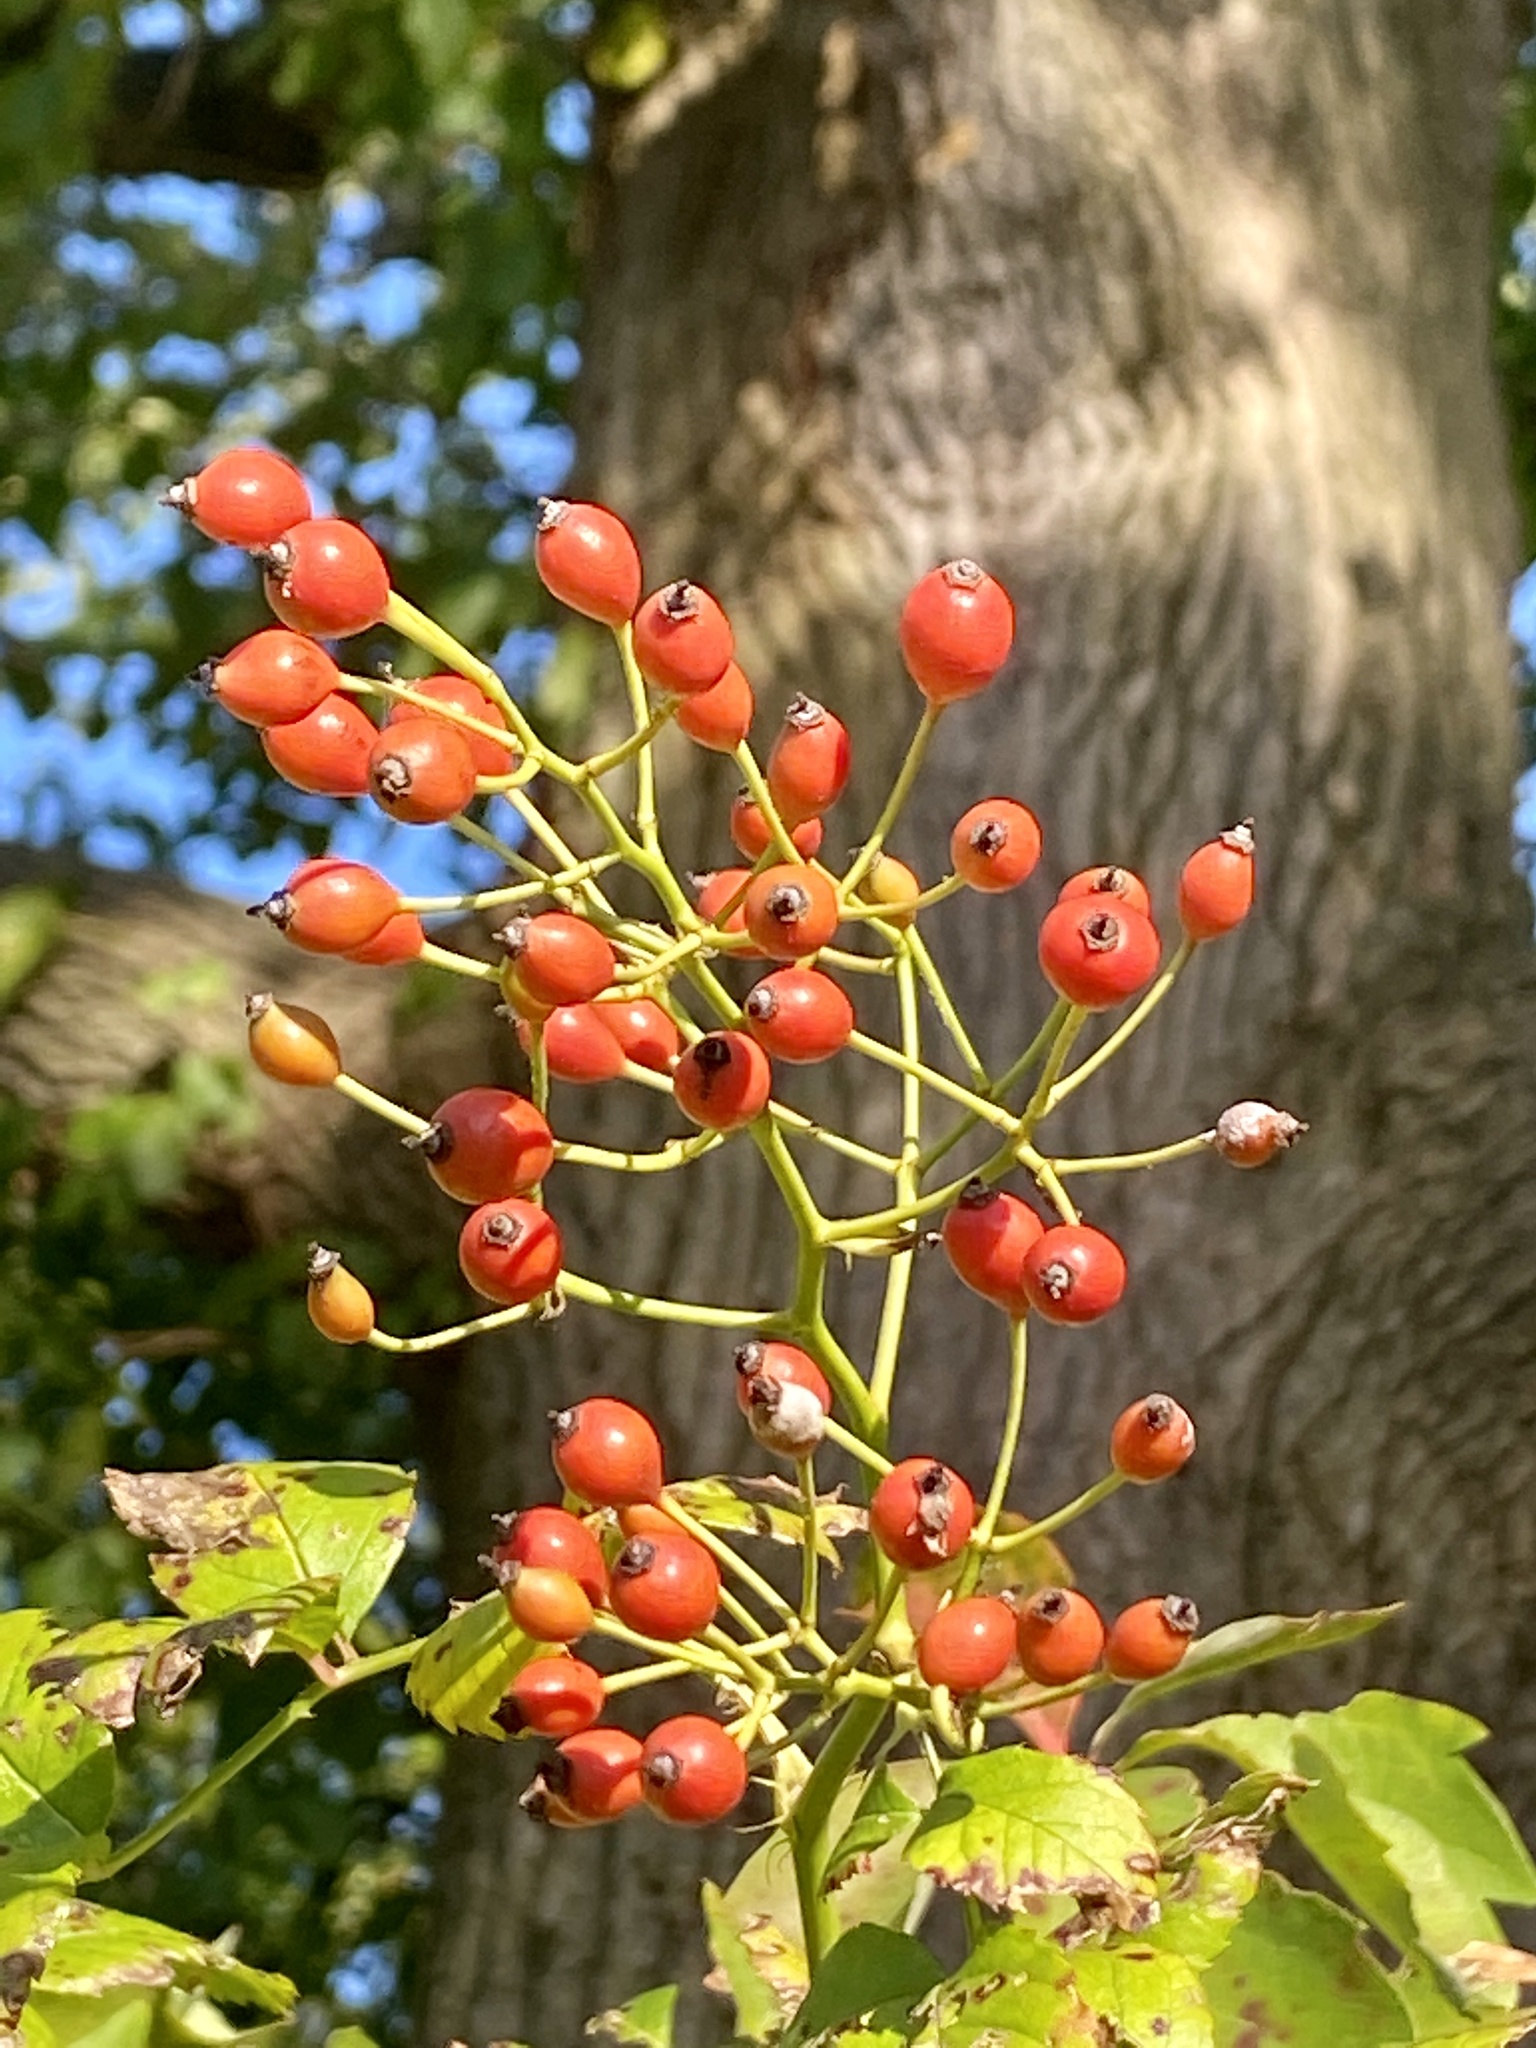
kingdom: Plantae
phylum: Tracheophyta
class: Magnoliopsida
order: Rosales
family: Rosaceae
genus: Rosa
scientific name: Rosa multiflora
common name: Multiflora rose
